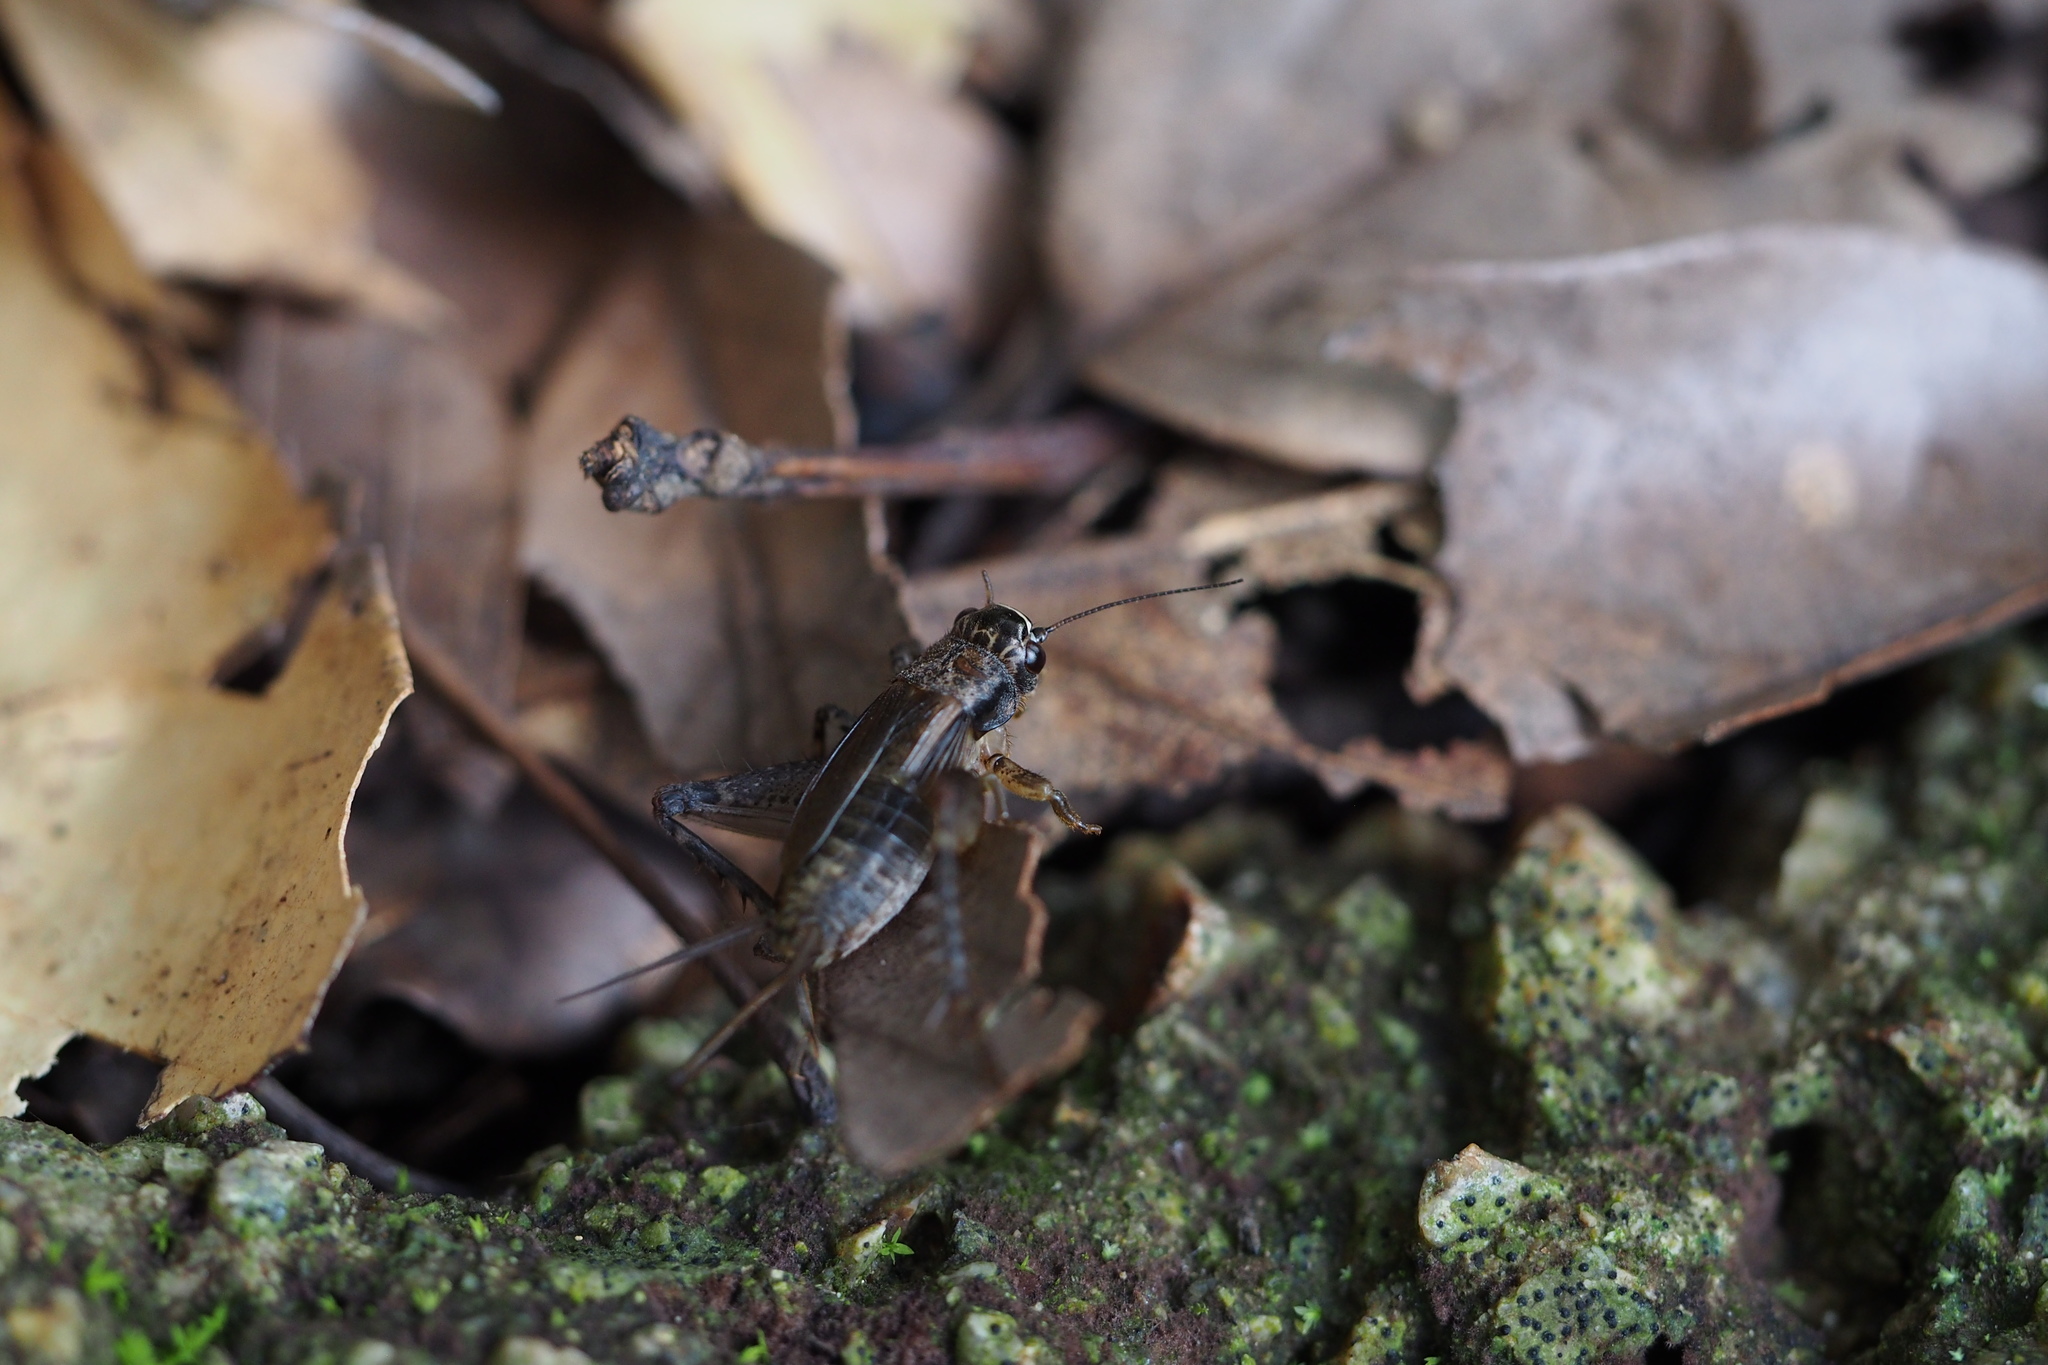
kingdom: Animalia
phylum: Arthropoda
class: Insecta
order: Orthoptera
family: Gryllidae
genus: Loxoblemmus
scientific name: Loxoblemmus arietulus
